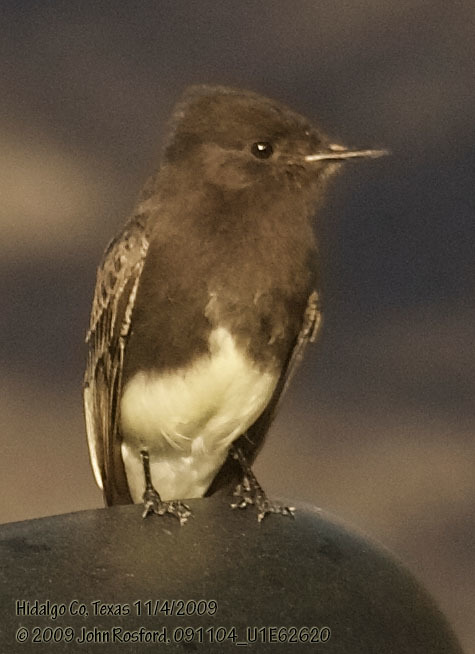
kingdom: Animalia
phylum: Chordata
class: Aves
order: Passeriformes
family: Tyrannidae
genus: Sayornis
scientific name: Sayornis nigricans
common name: Black phoebe
